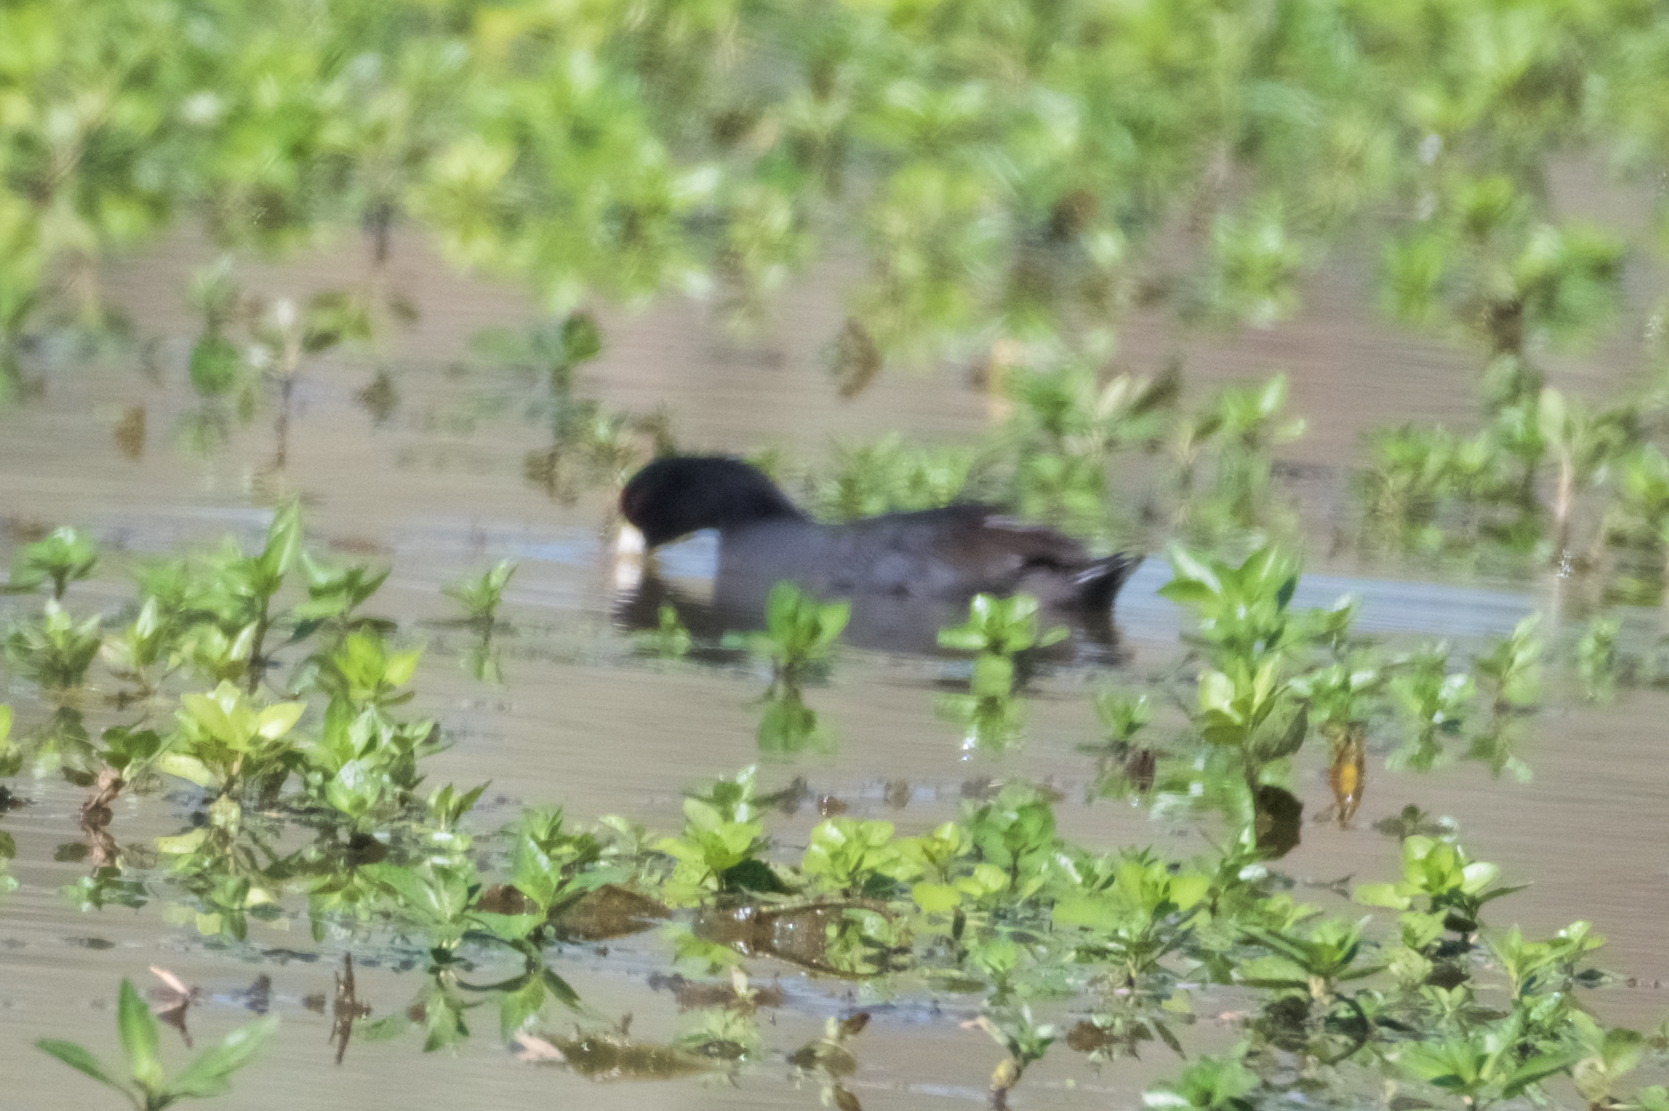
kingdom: Animalia
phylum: Chordata
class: Aves
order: Gruiformes
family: Rallidae
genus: Fulica
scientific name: Fulica americana
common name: American coot
